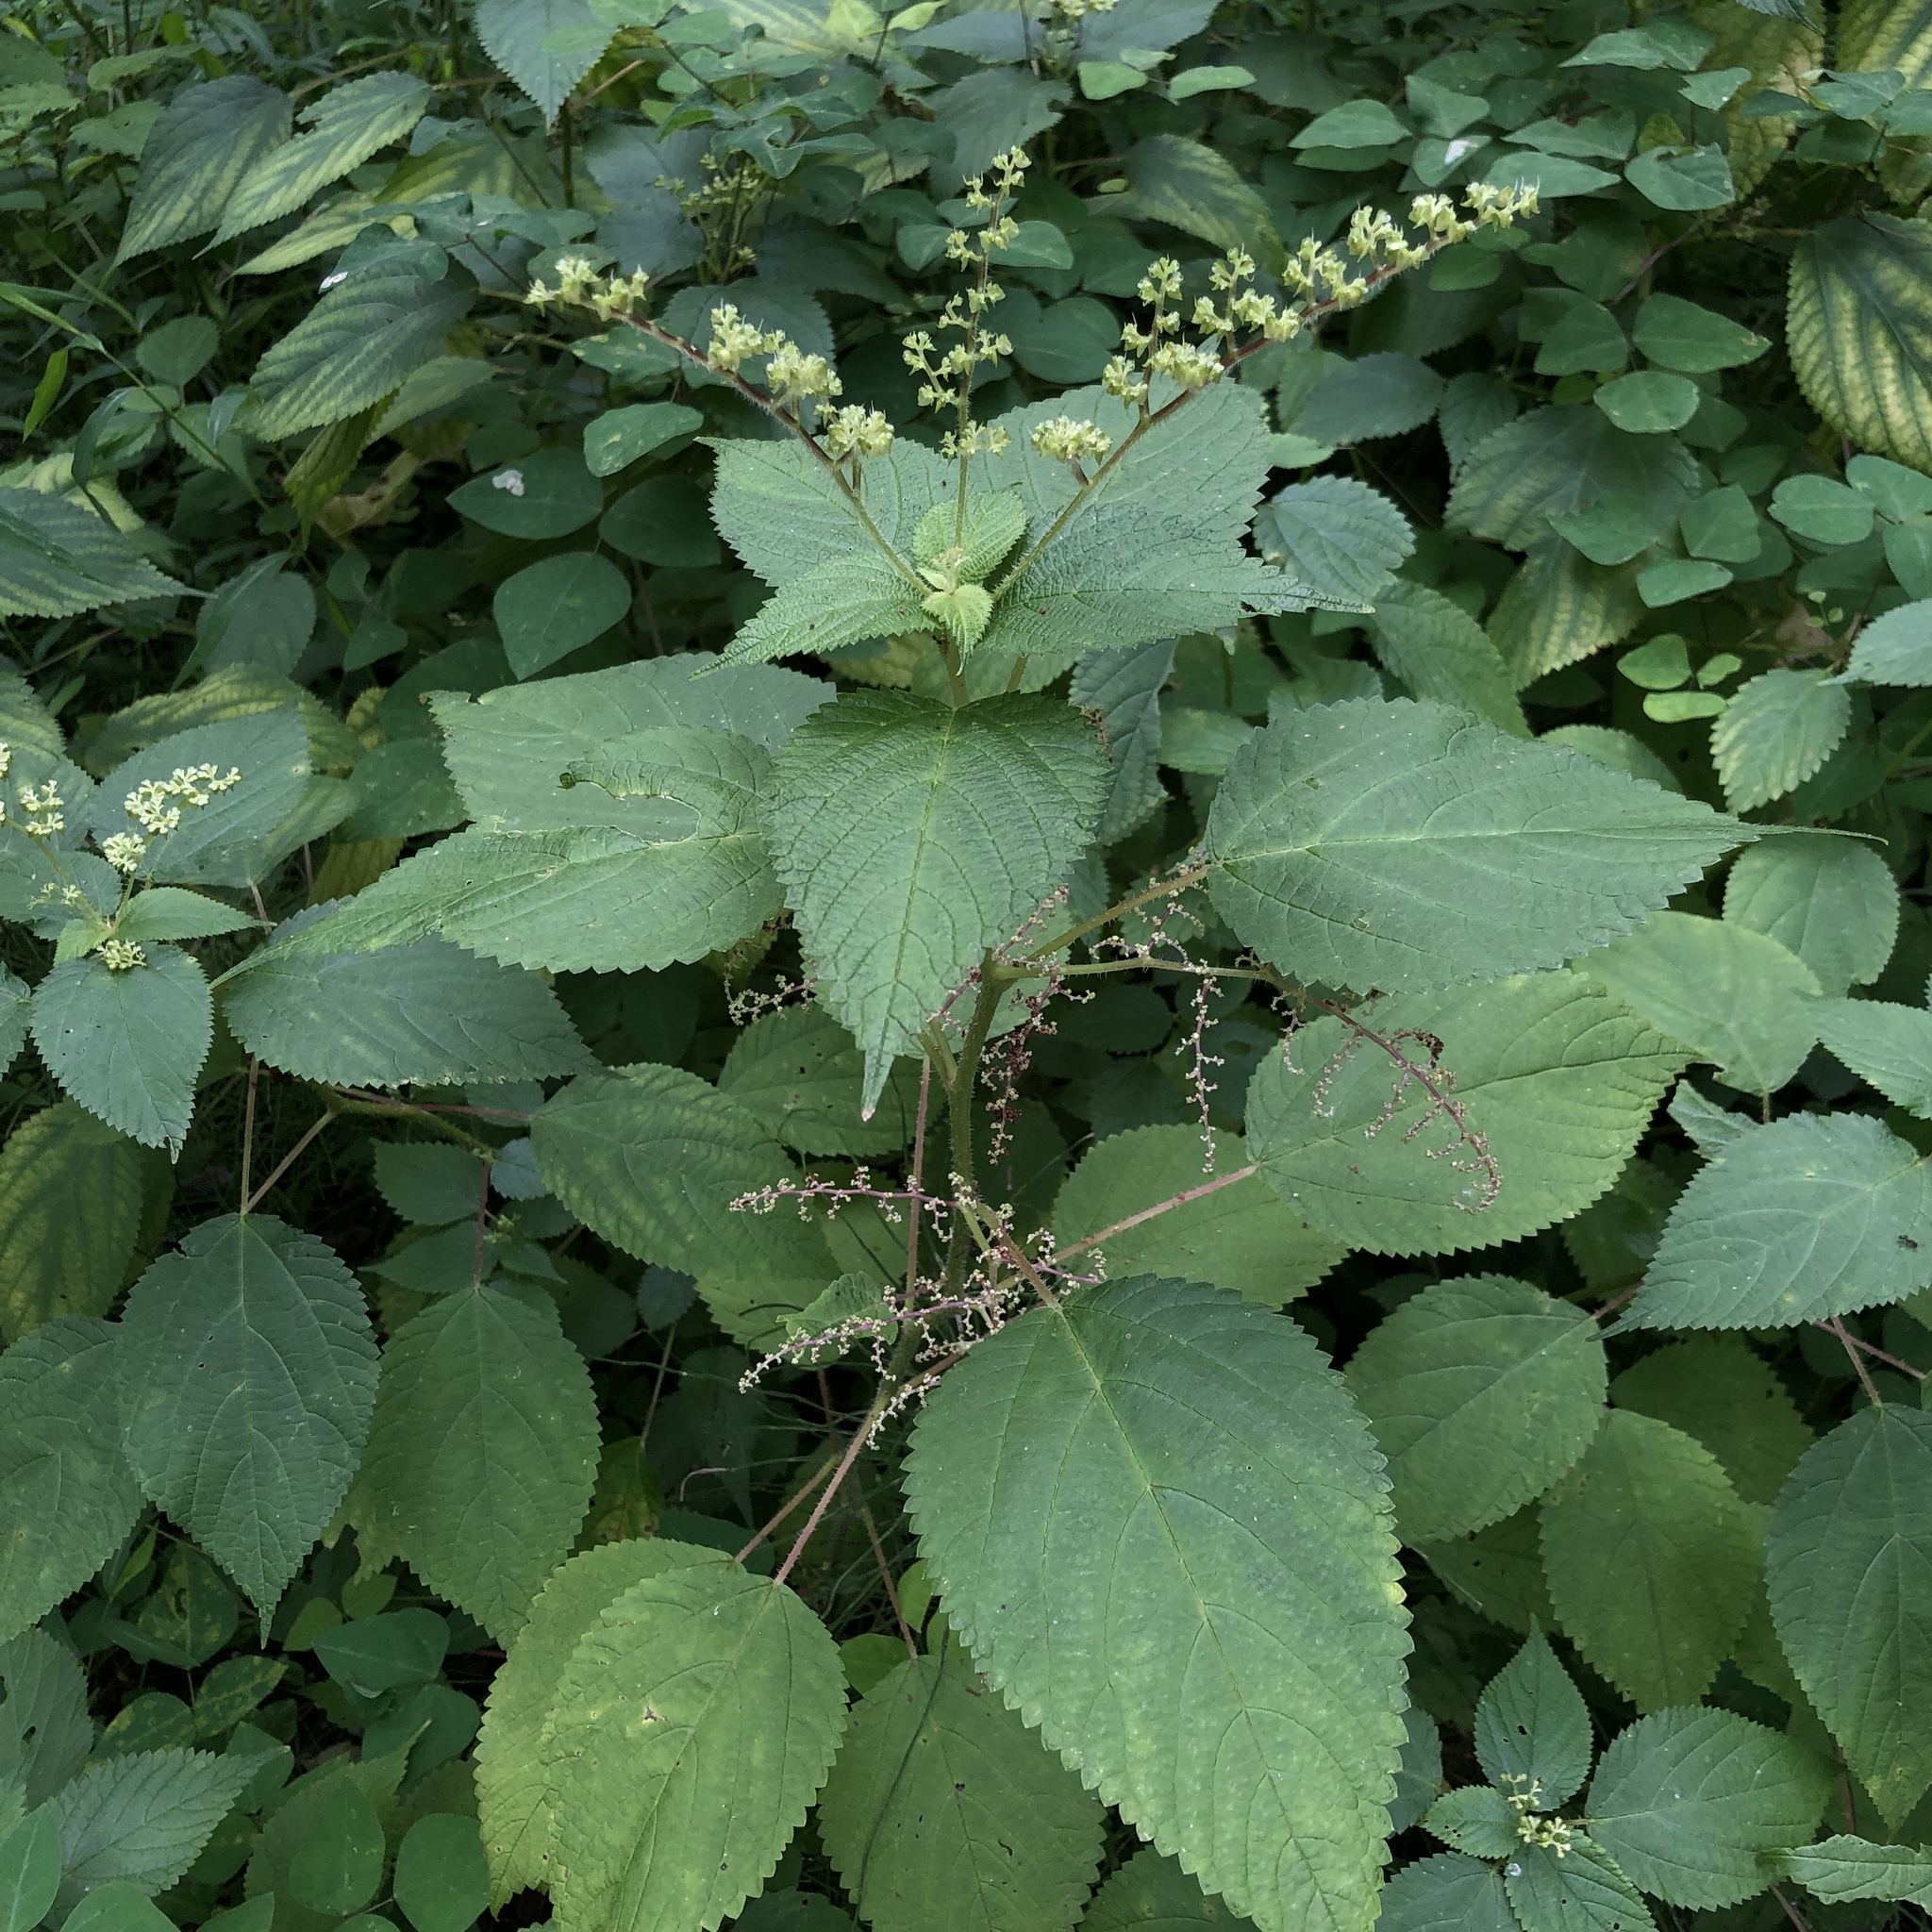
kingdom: Plantae
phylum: Tracheophyta
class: Magnoliopsida
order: Rosales
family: Urticaceae
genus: Laportea
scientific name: Laportea canadensis
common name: Canada nettle
